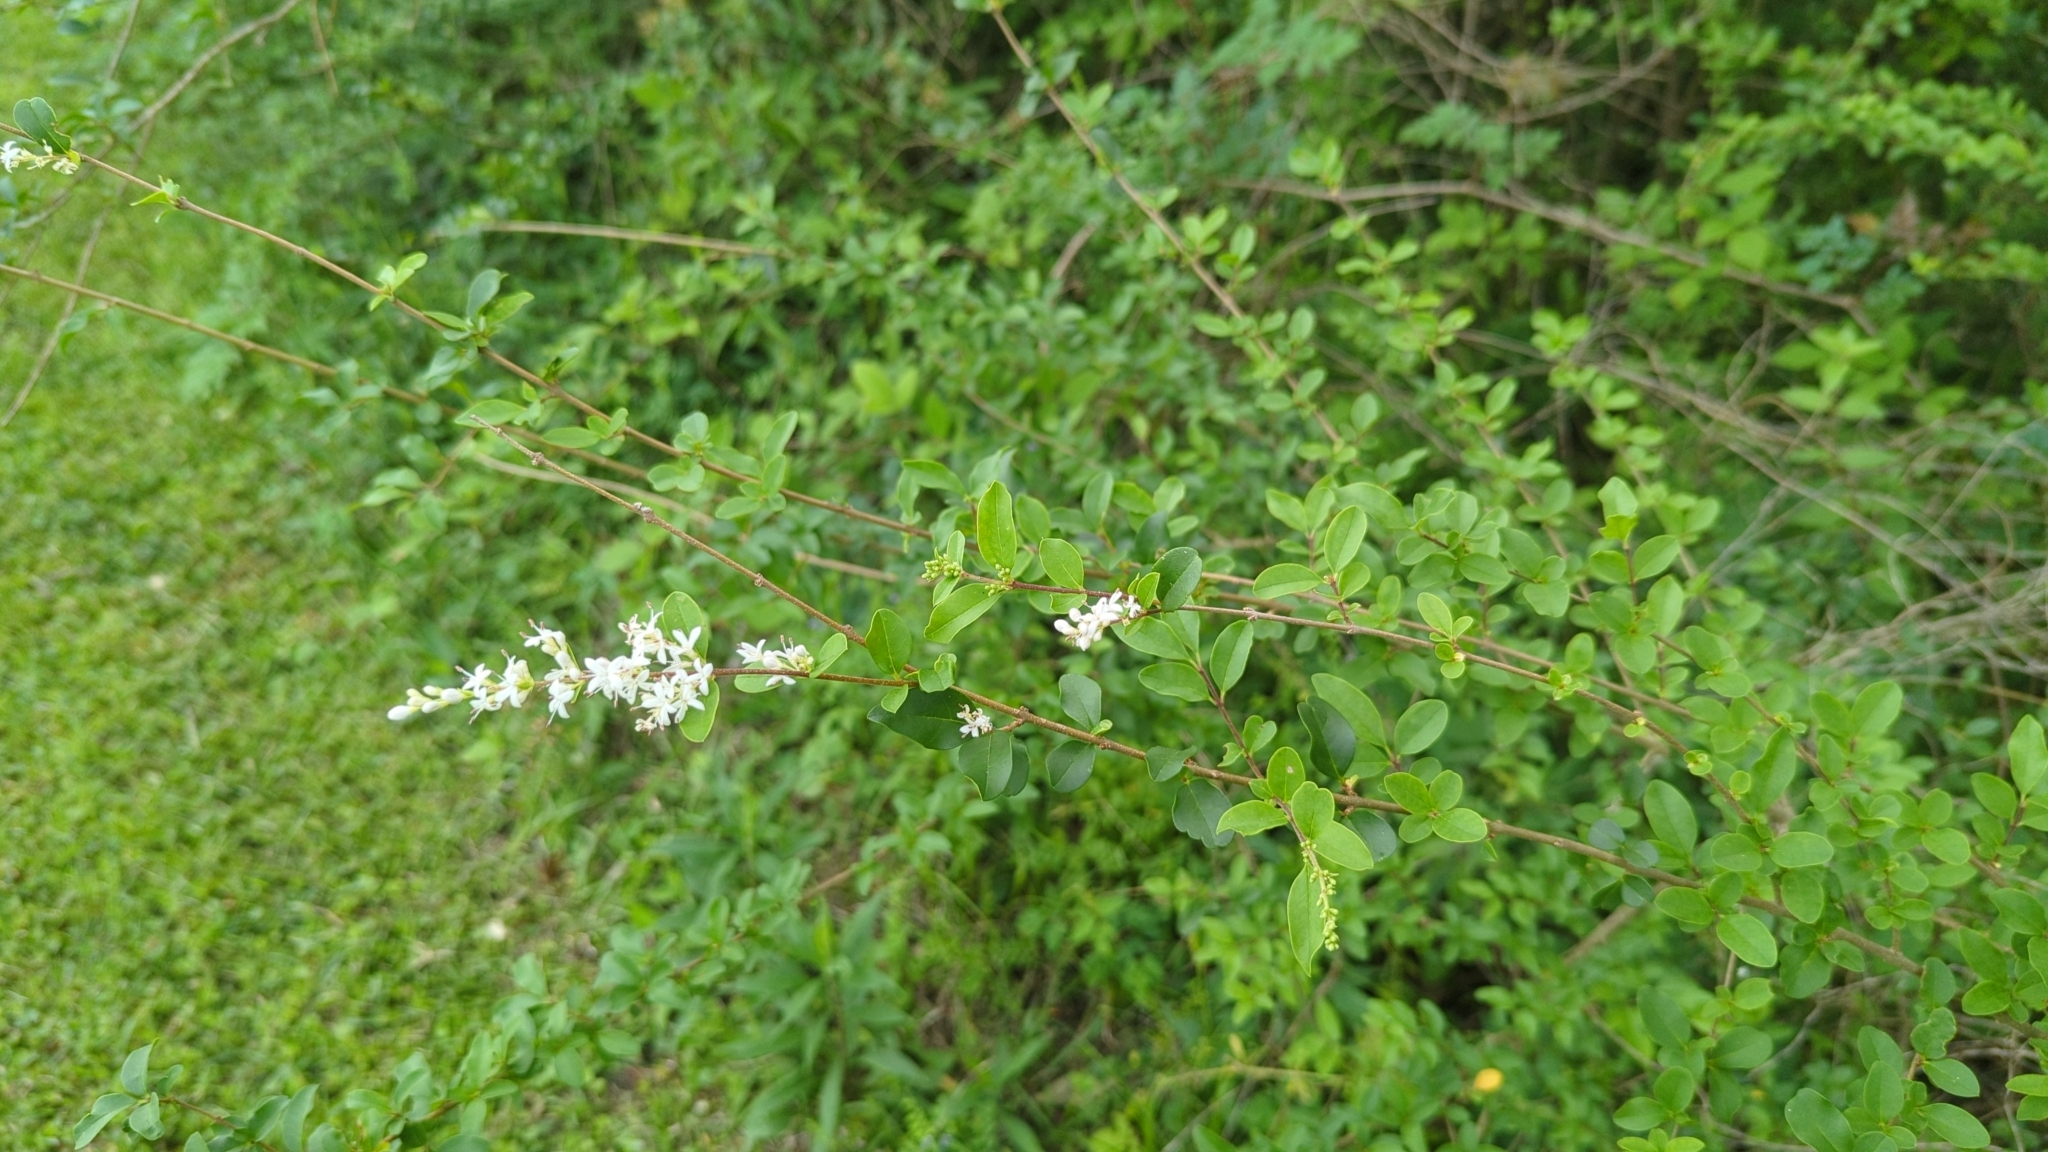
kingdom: Plantae
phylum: Tracheophyta
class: Magnoliopsida
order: Lamiales
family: Oleaceae
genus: Ligustrum
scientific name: Ligustrum sinense
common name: Chinese privet
